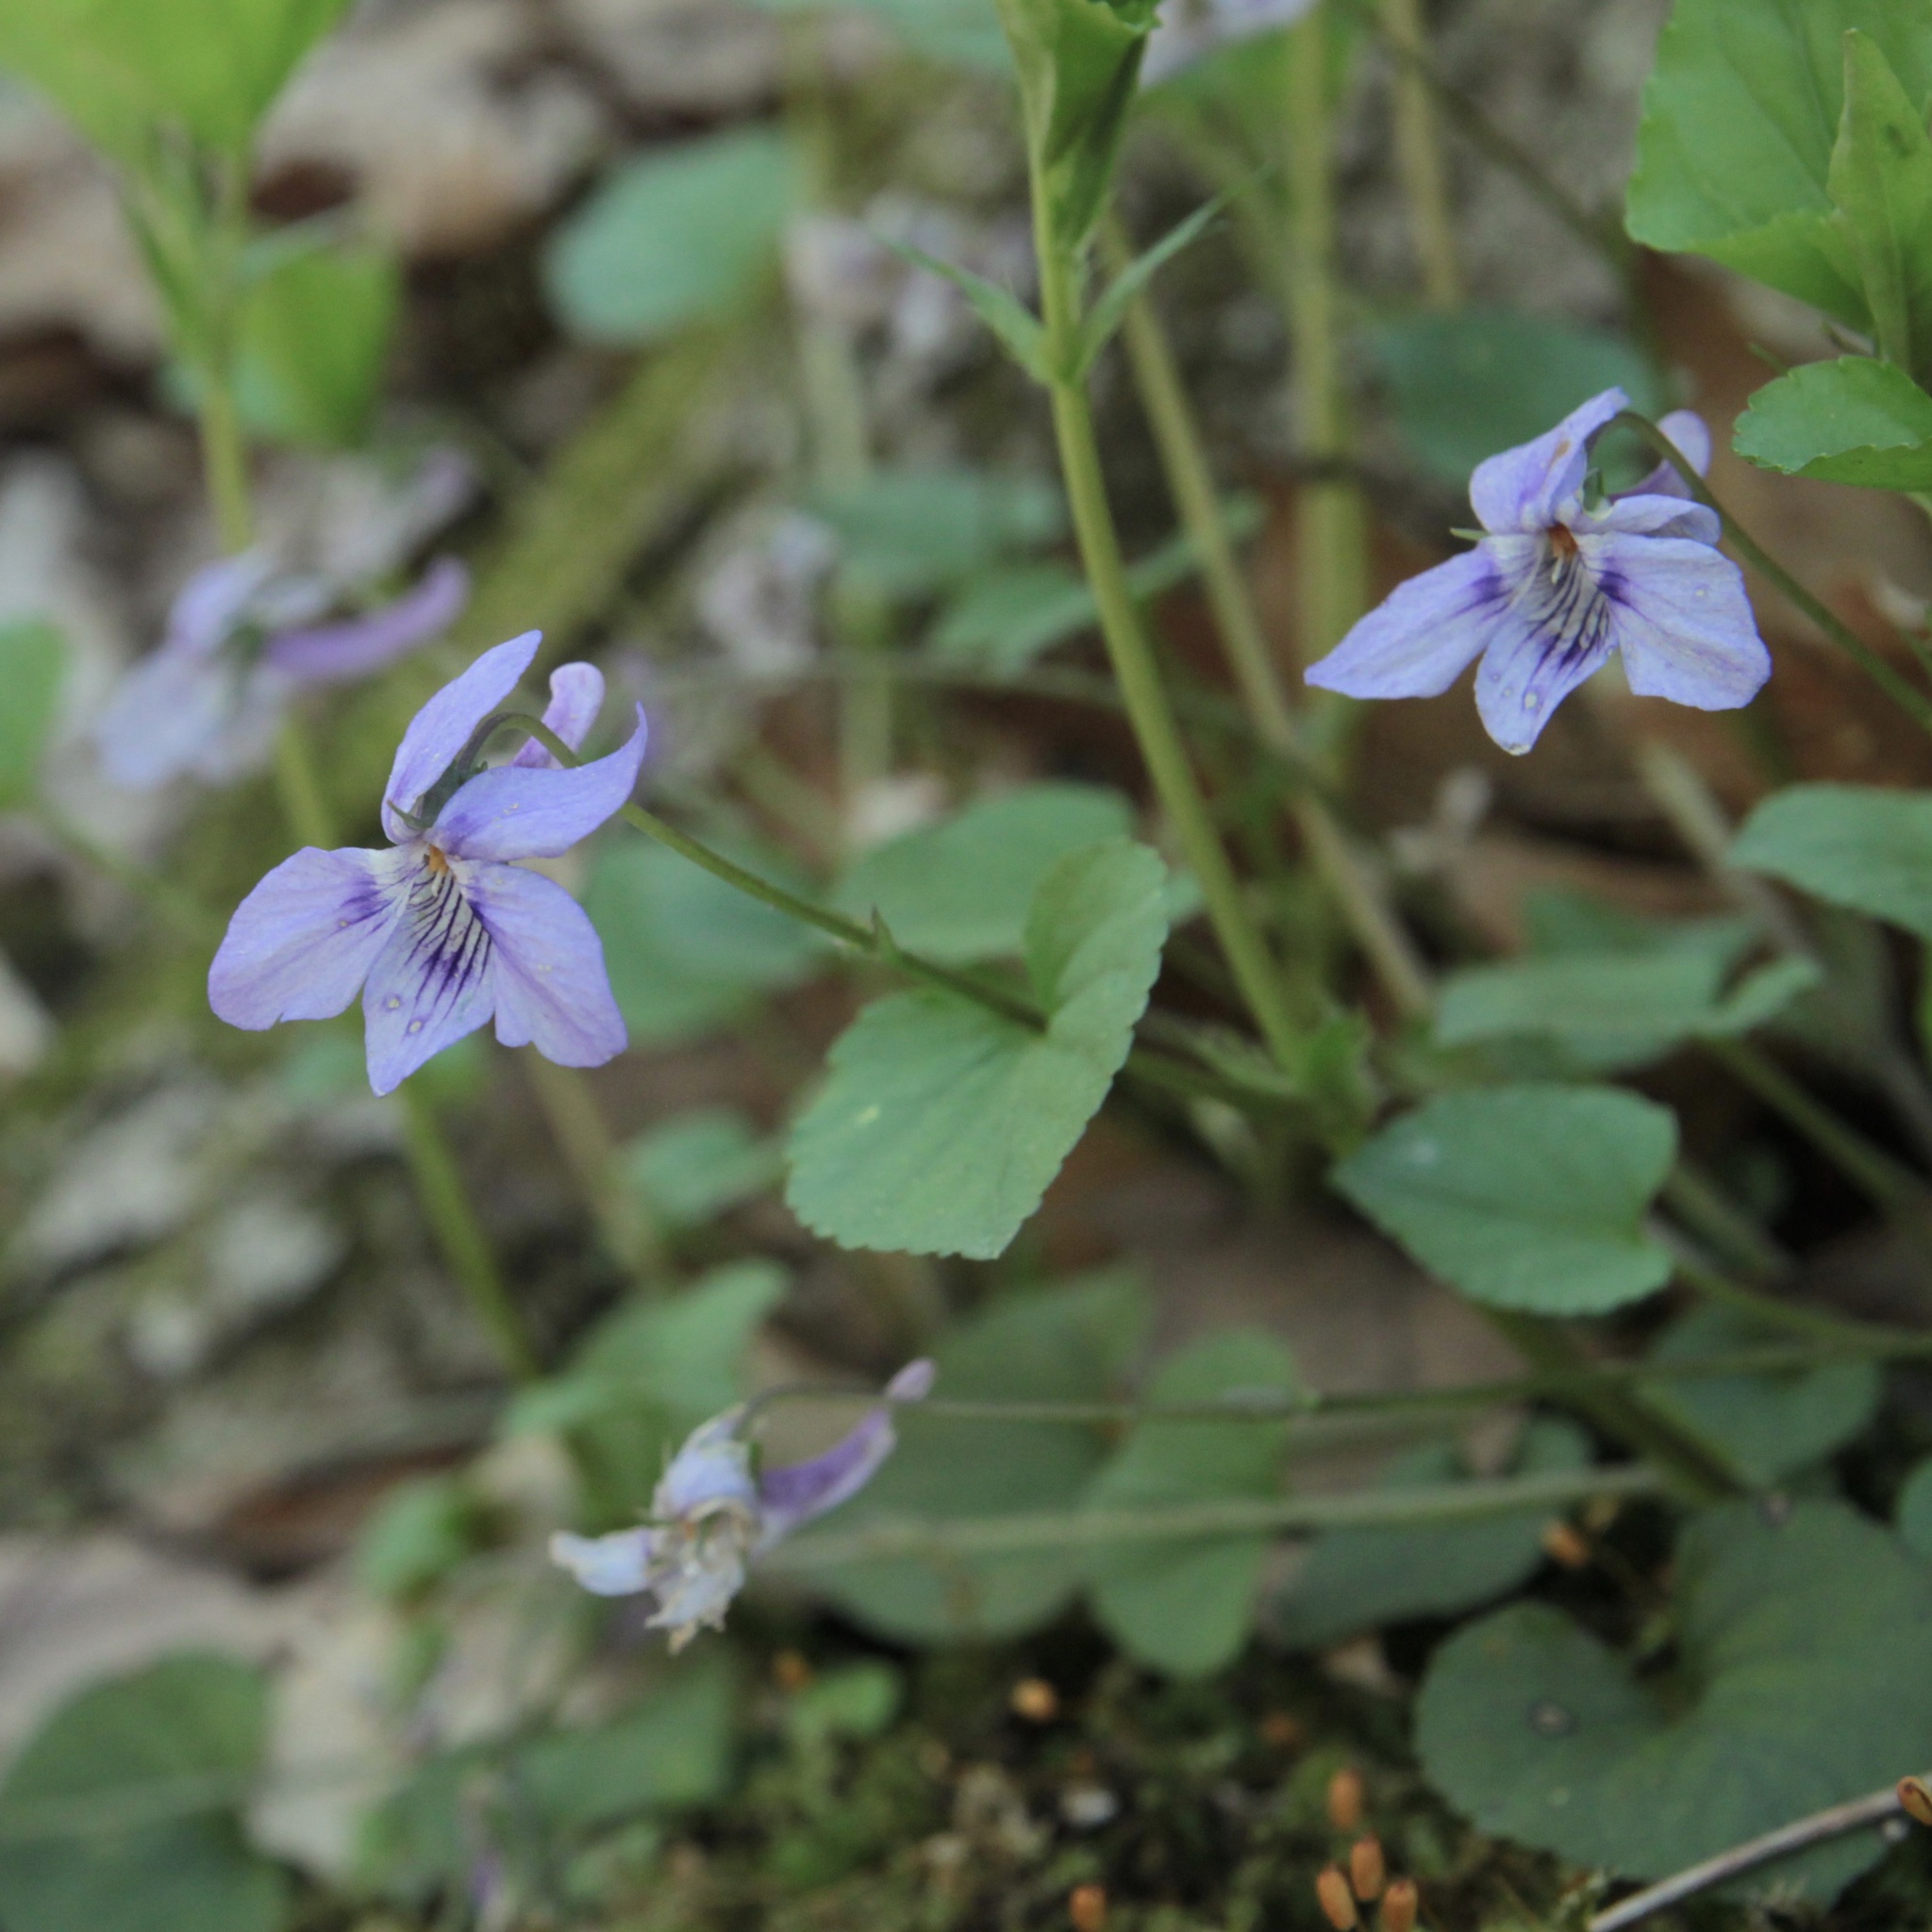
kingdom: Plantae
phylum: Tracheophyta
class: Magnoliopsida
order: Malpighiales
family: Violaceae
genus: Viola
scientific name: Viola rostrata
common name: Long-spur violet
